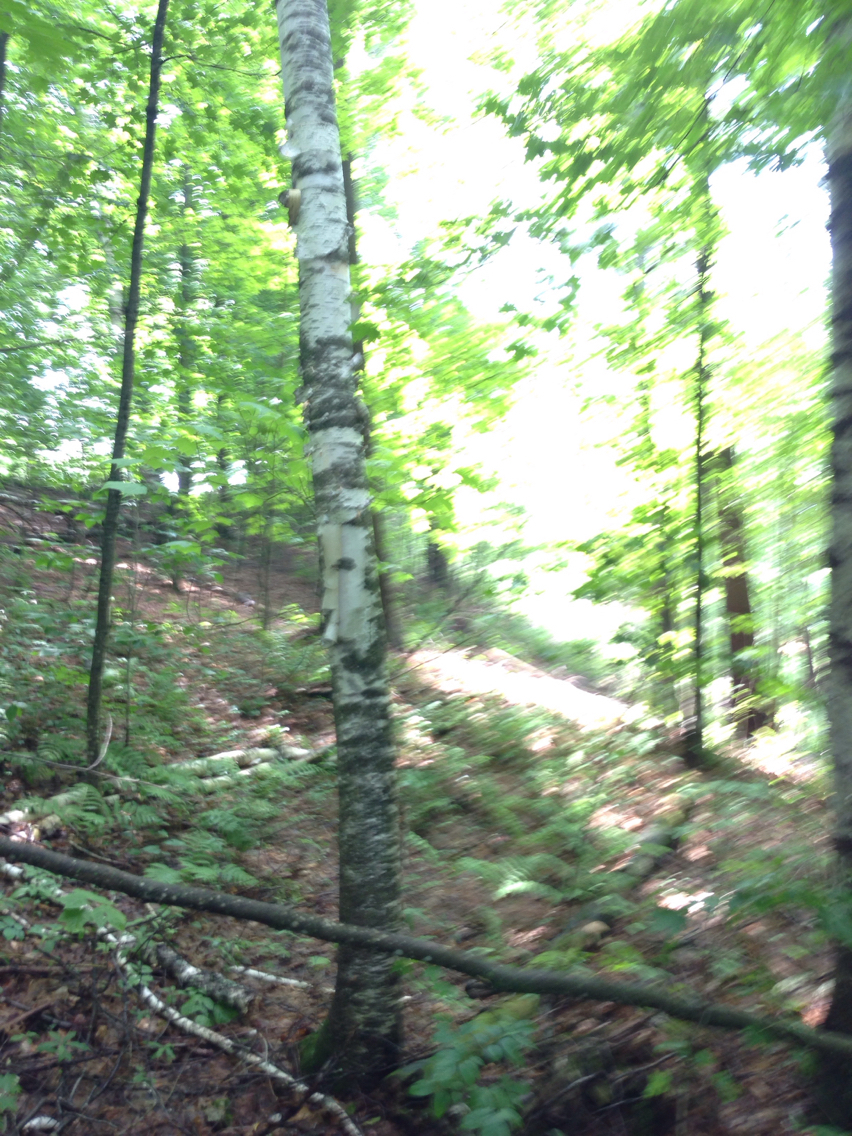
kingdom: Plantae
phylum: Tracheophyta
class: Magnoliopsida
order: Fagales
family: Betulaceae
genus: Betula
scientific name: Betula papyrifera
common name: Paper birch
